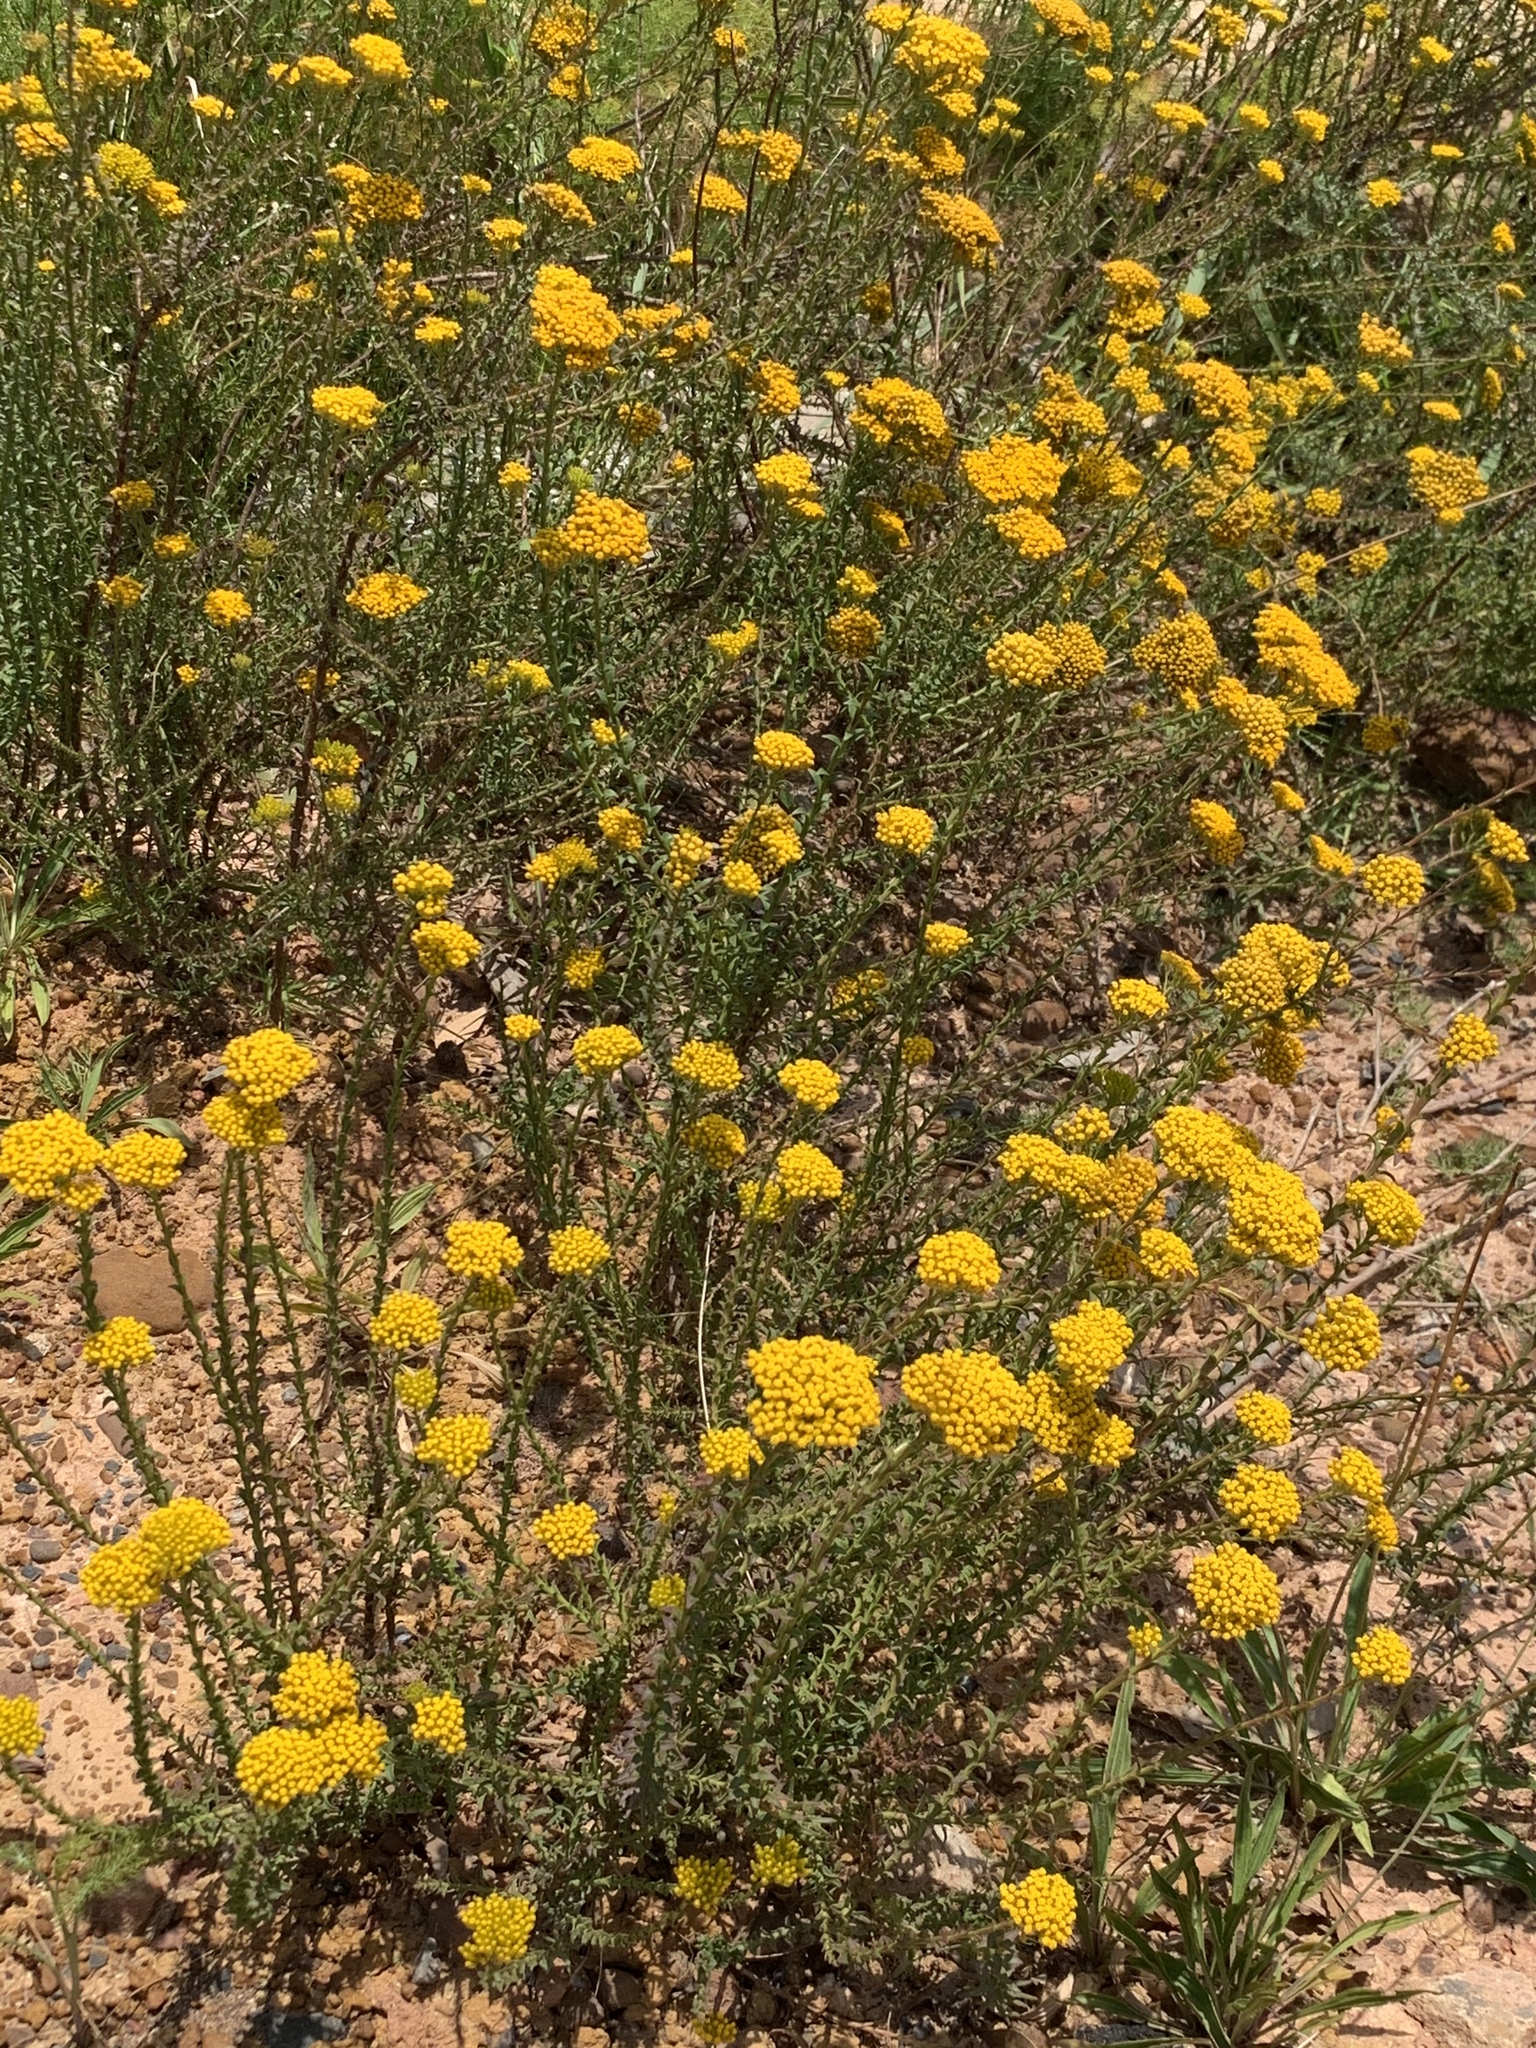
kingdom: Plantae
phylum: Tracheophyta
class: Magnoliopsida
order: Asterales
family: Asteraceae
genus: Athanasia
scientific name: Athanasia dentata
